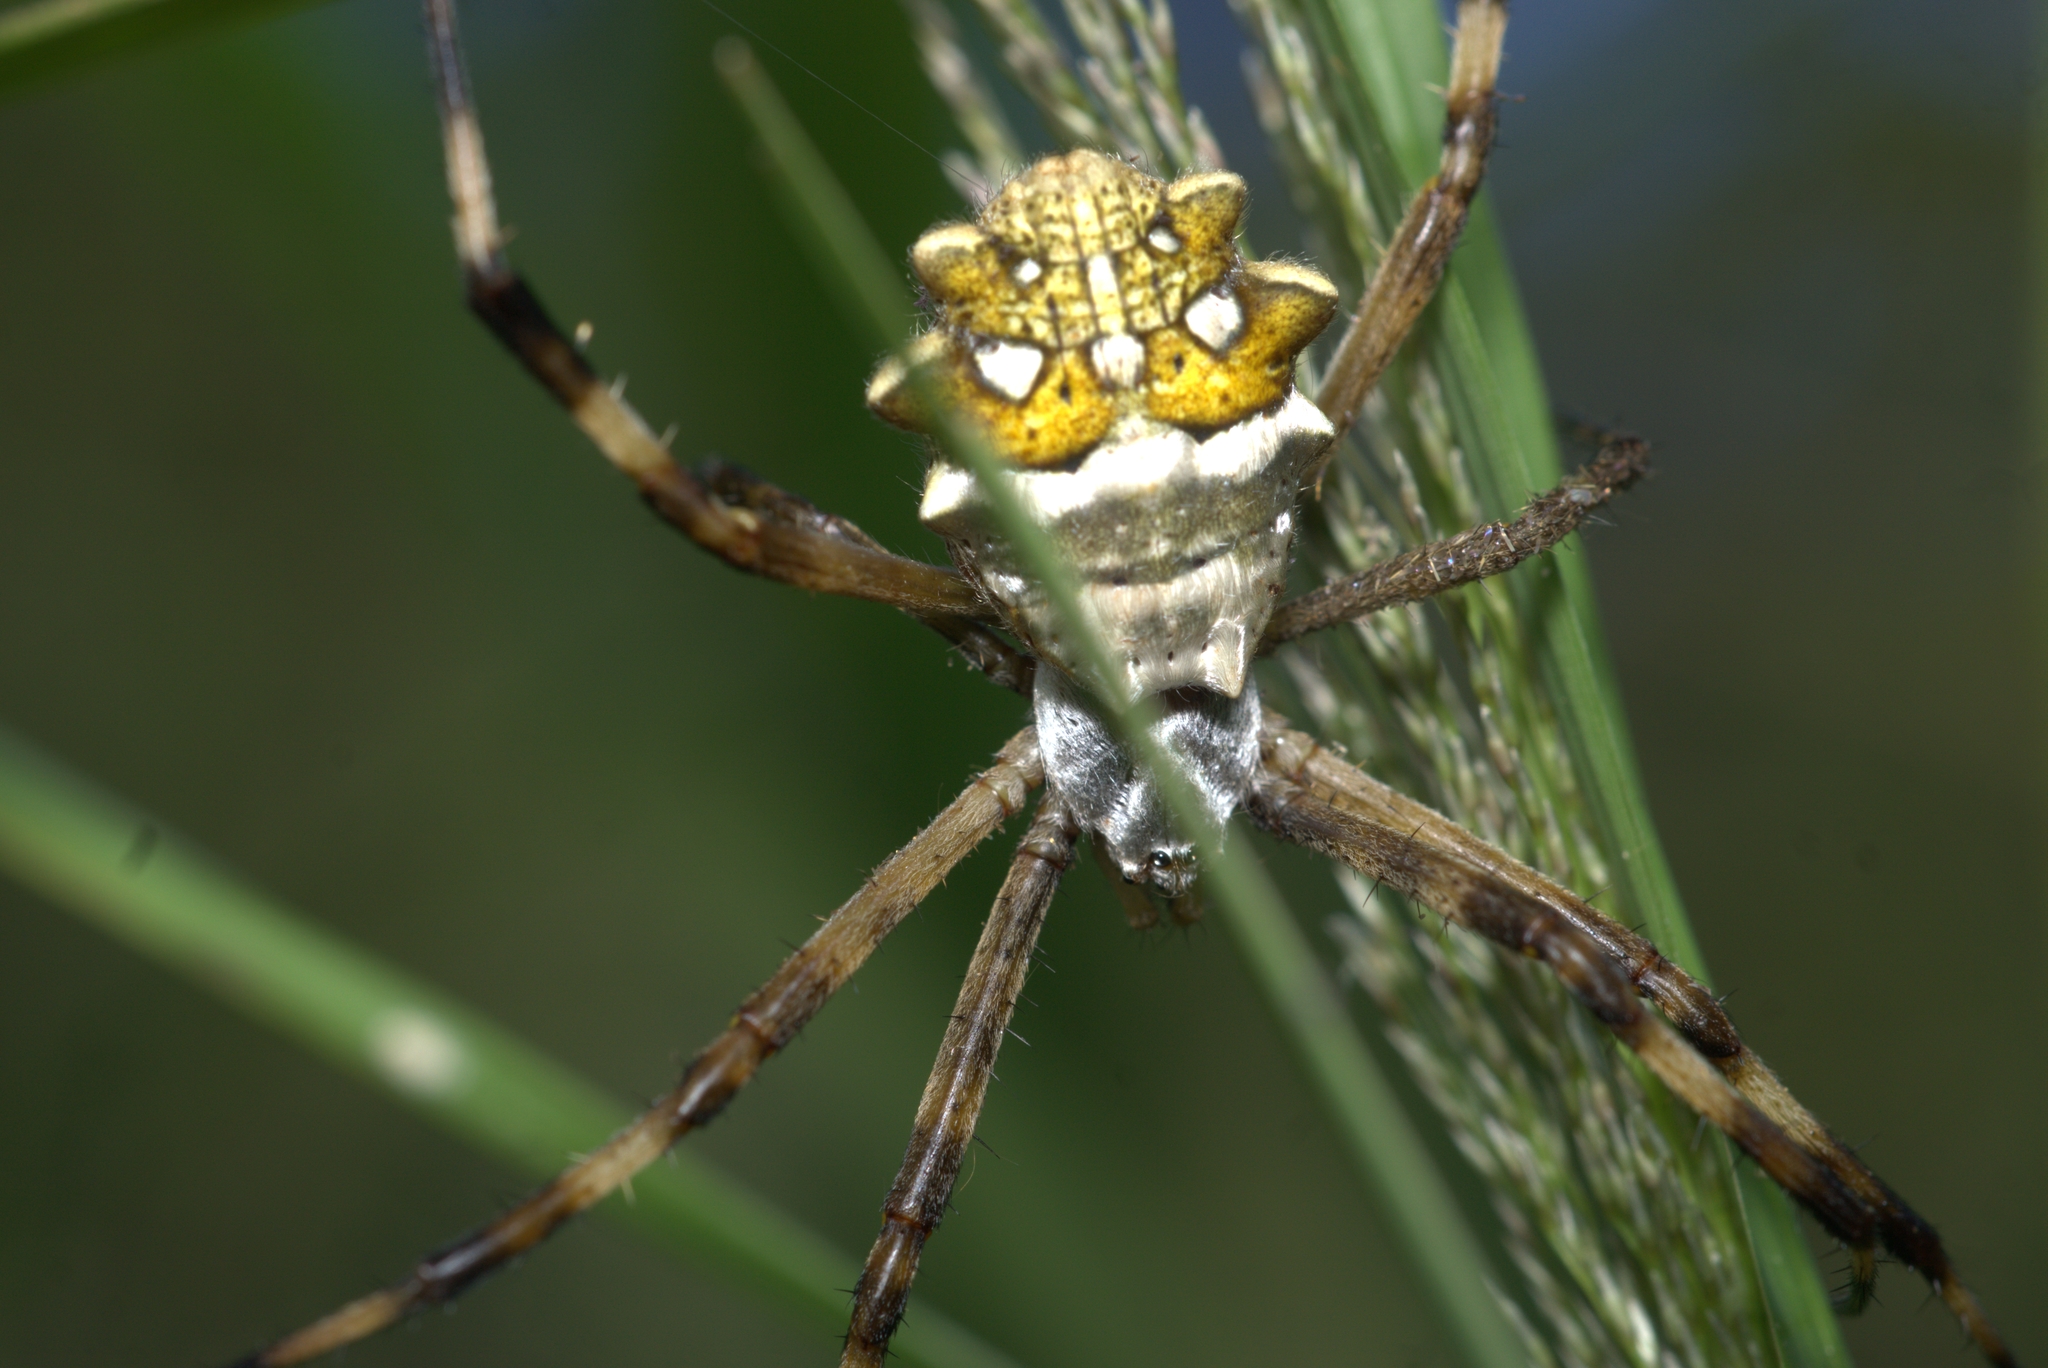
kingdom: Animalia
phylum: Arthropoda
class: Arachnida
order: Araneae
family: Araneidae
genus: Argiope
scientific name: Argiope argentata
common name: Orb weavers
